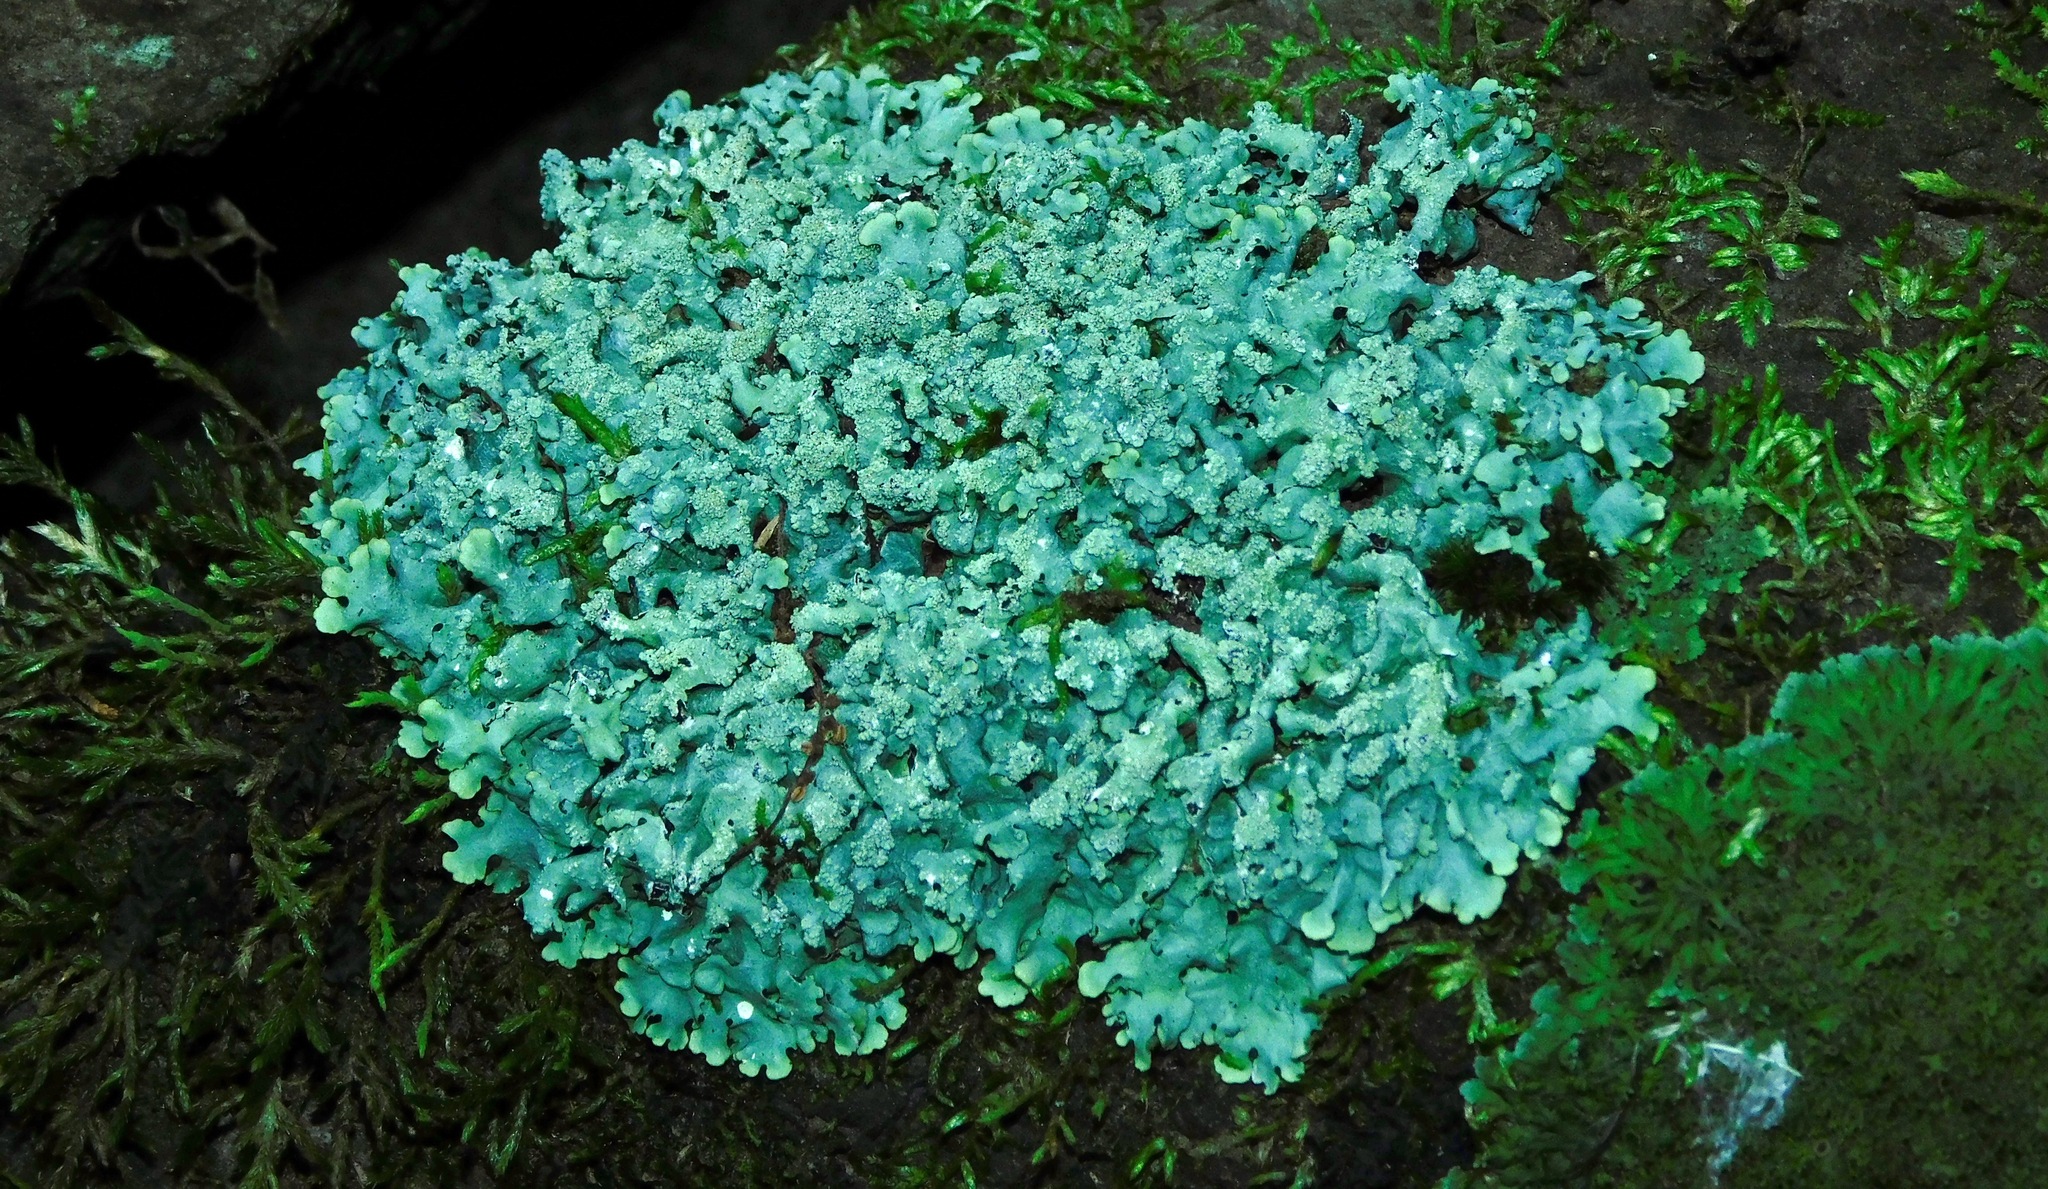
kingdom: Fungi
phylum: Ascomycota
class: Lecanoromycetes
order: Lecanorales
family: Parmeliaceae
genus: Myelochroa
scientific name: Myelochroa aurulenta
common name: Powdery axil-bristle lichen
